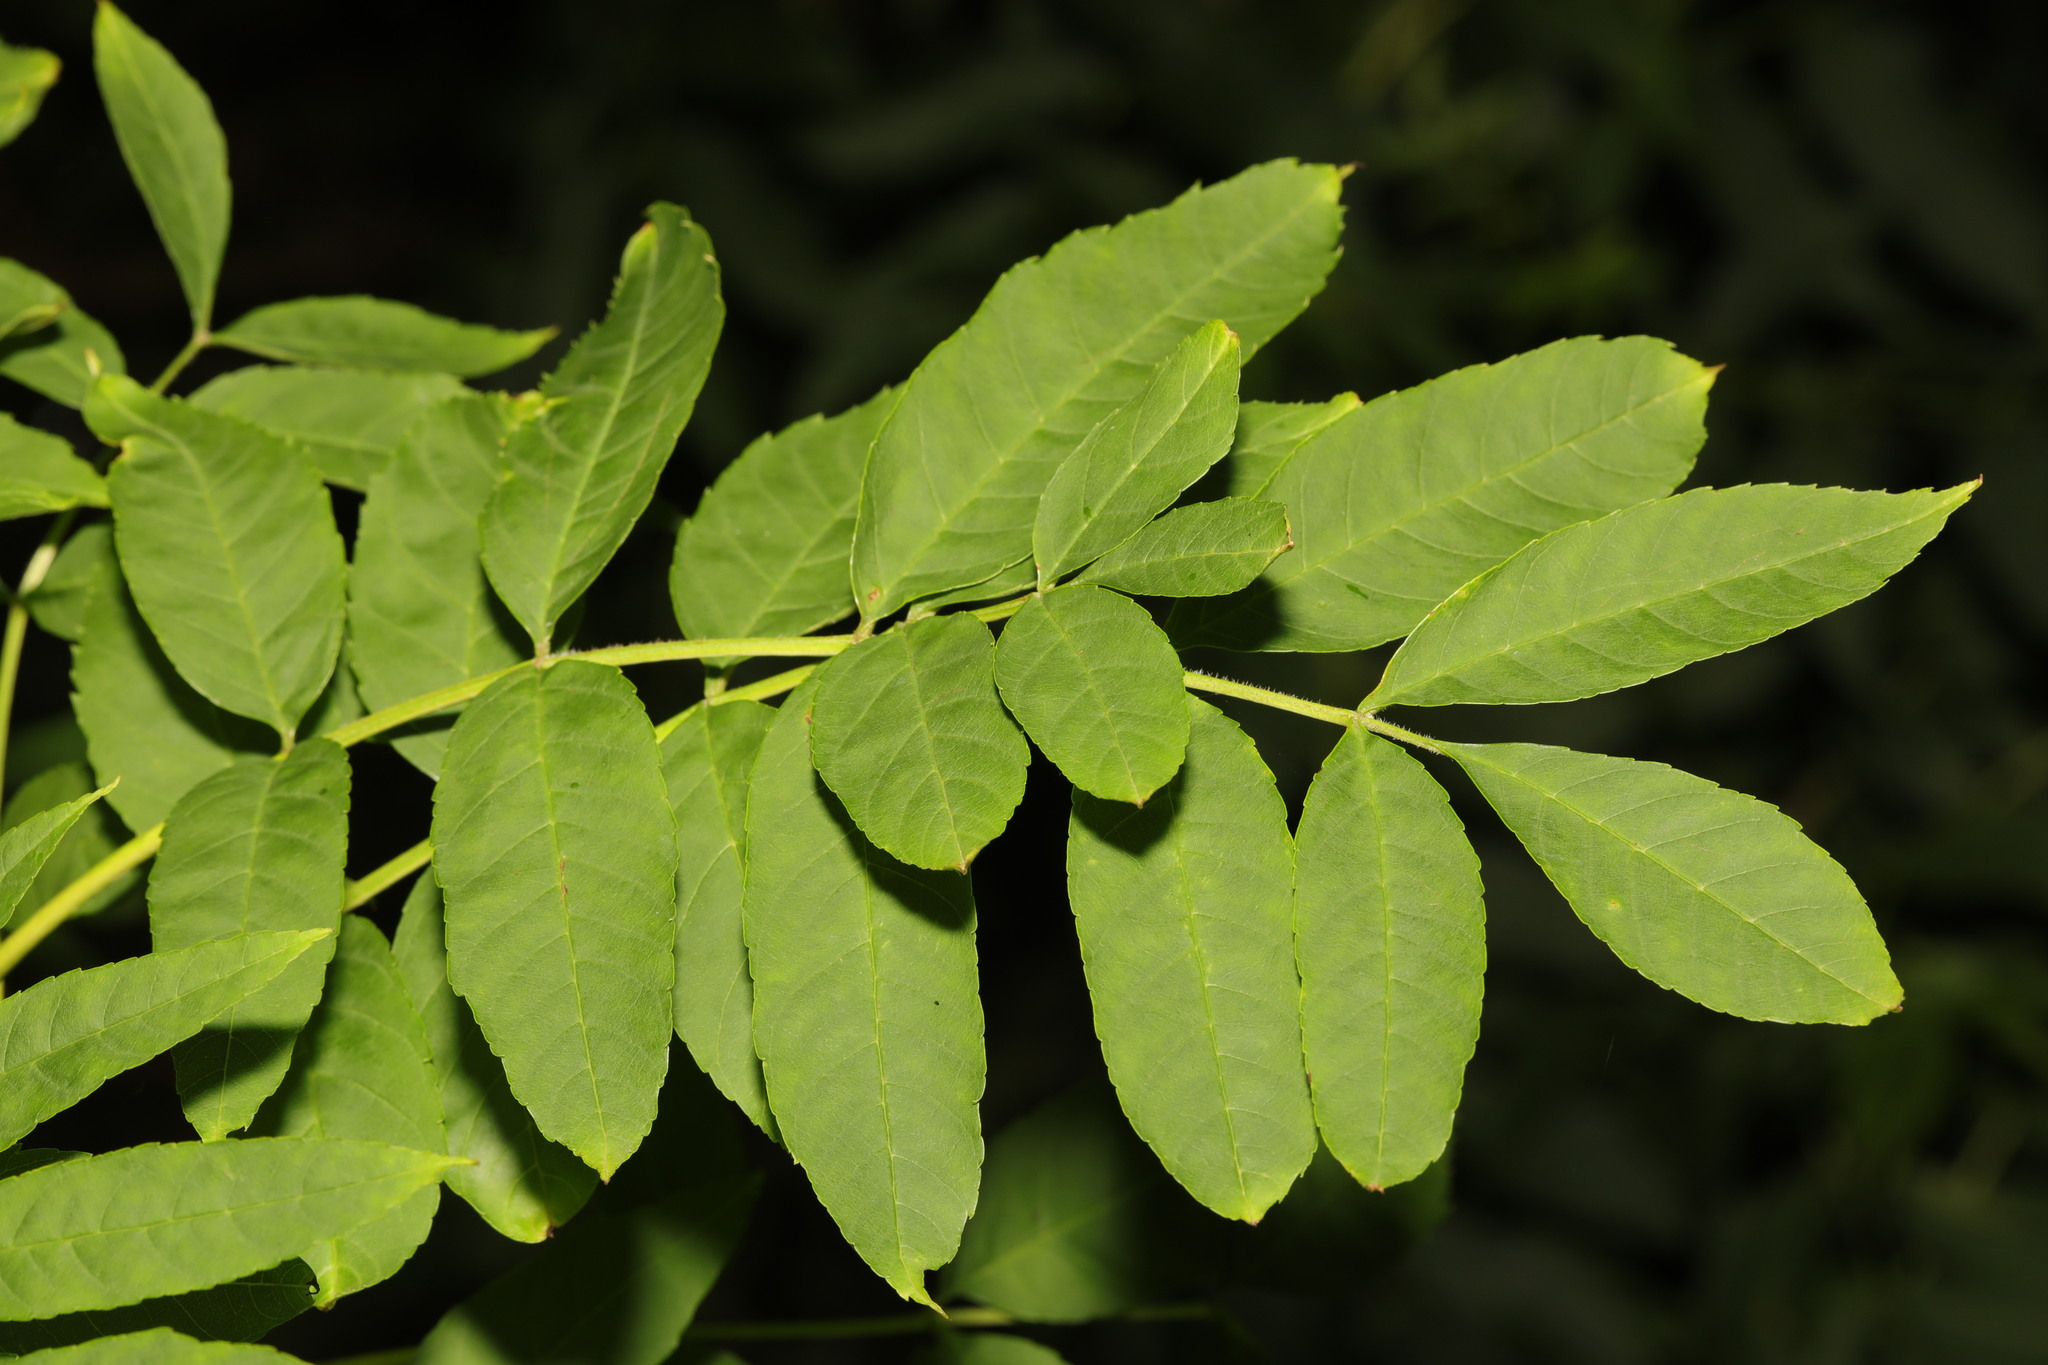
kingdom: Plantae
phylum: Tracheophyta
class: Magnoliopsida
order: Lamiales
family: Oleaceae
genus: Fraxinus
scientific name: Fraxinus excelsior
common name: European ash
